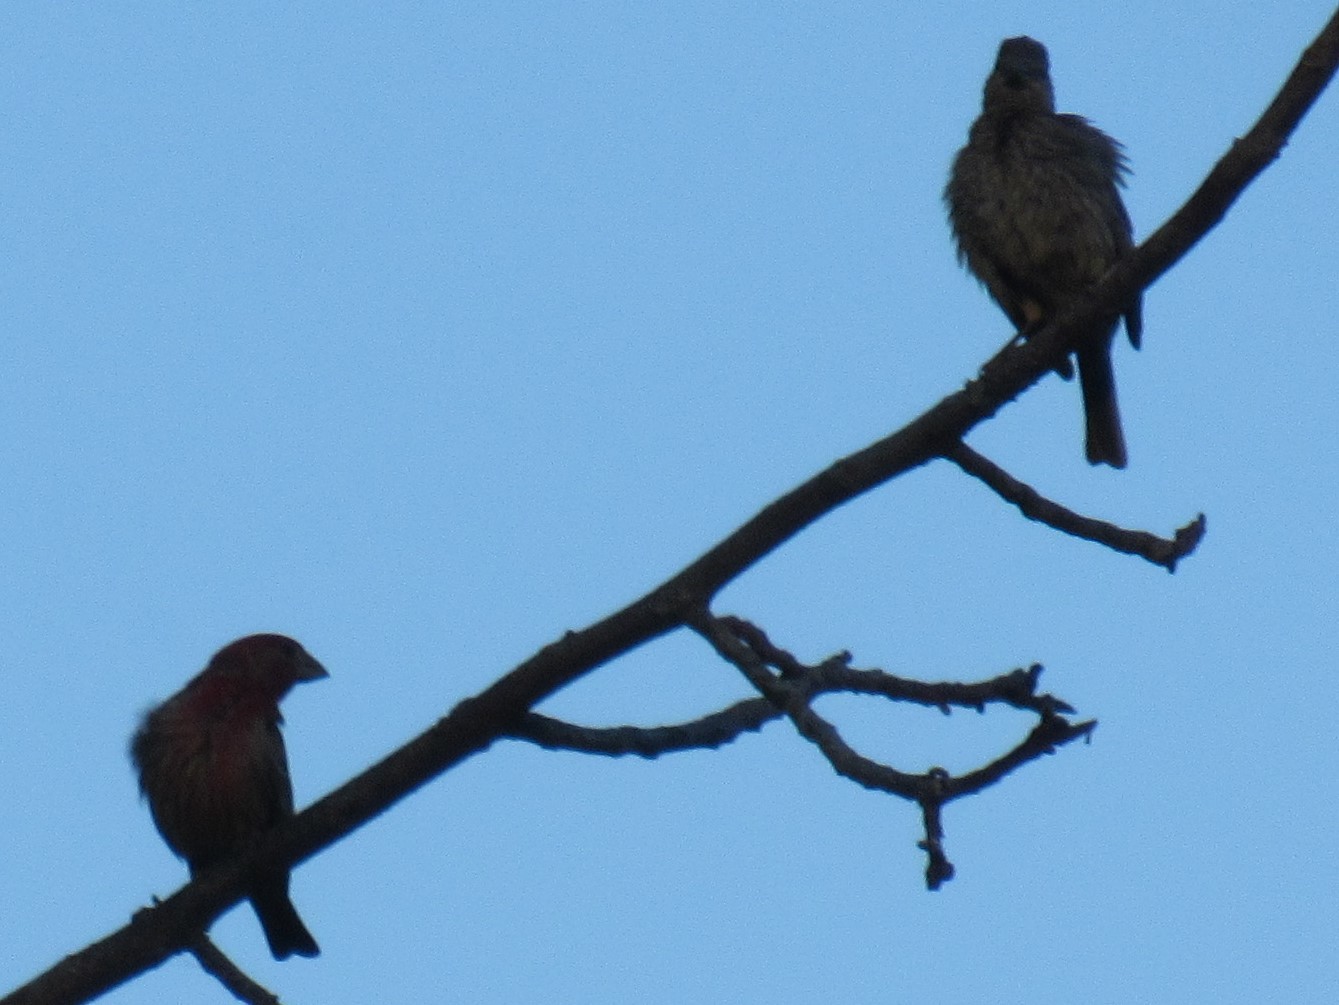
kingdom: Animalia
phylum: Chordata
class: Aves
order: Passeriformes
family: Fringillidae
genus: Haemorhous
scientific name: Haemorhous mexicanus
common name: House finch
